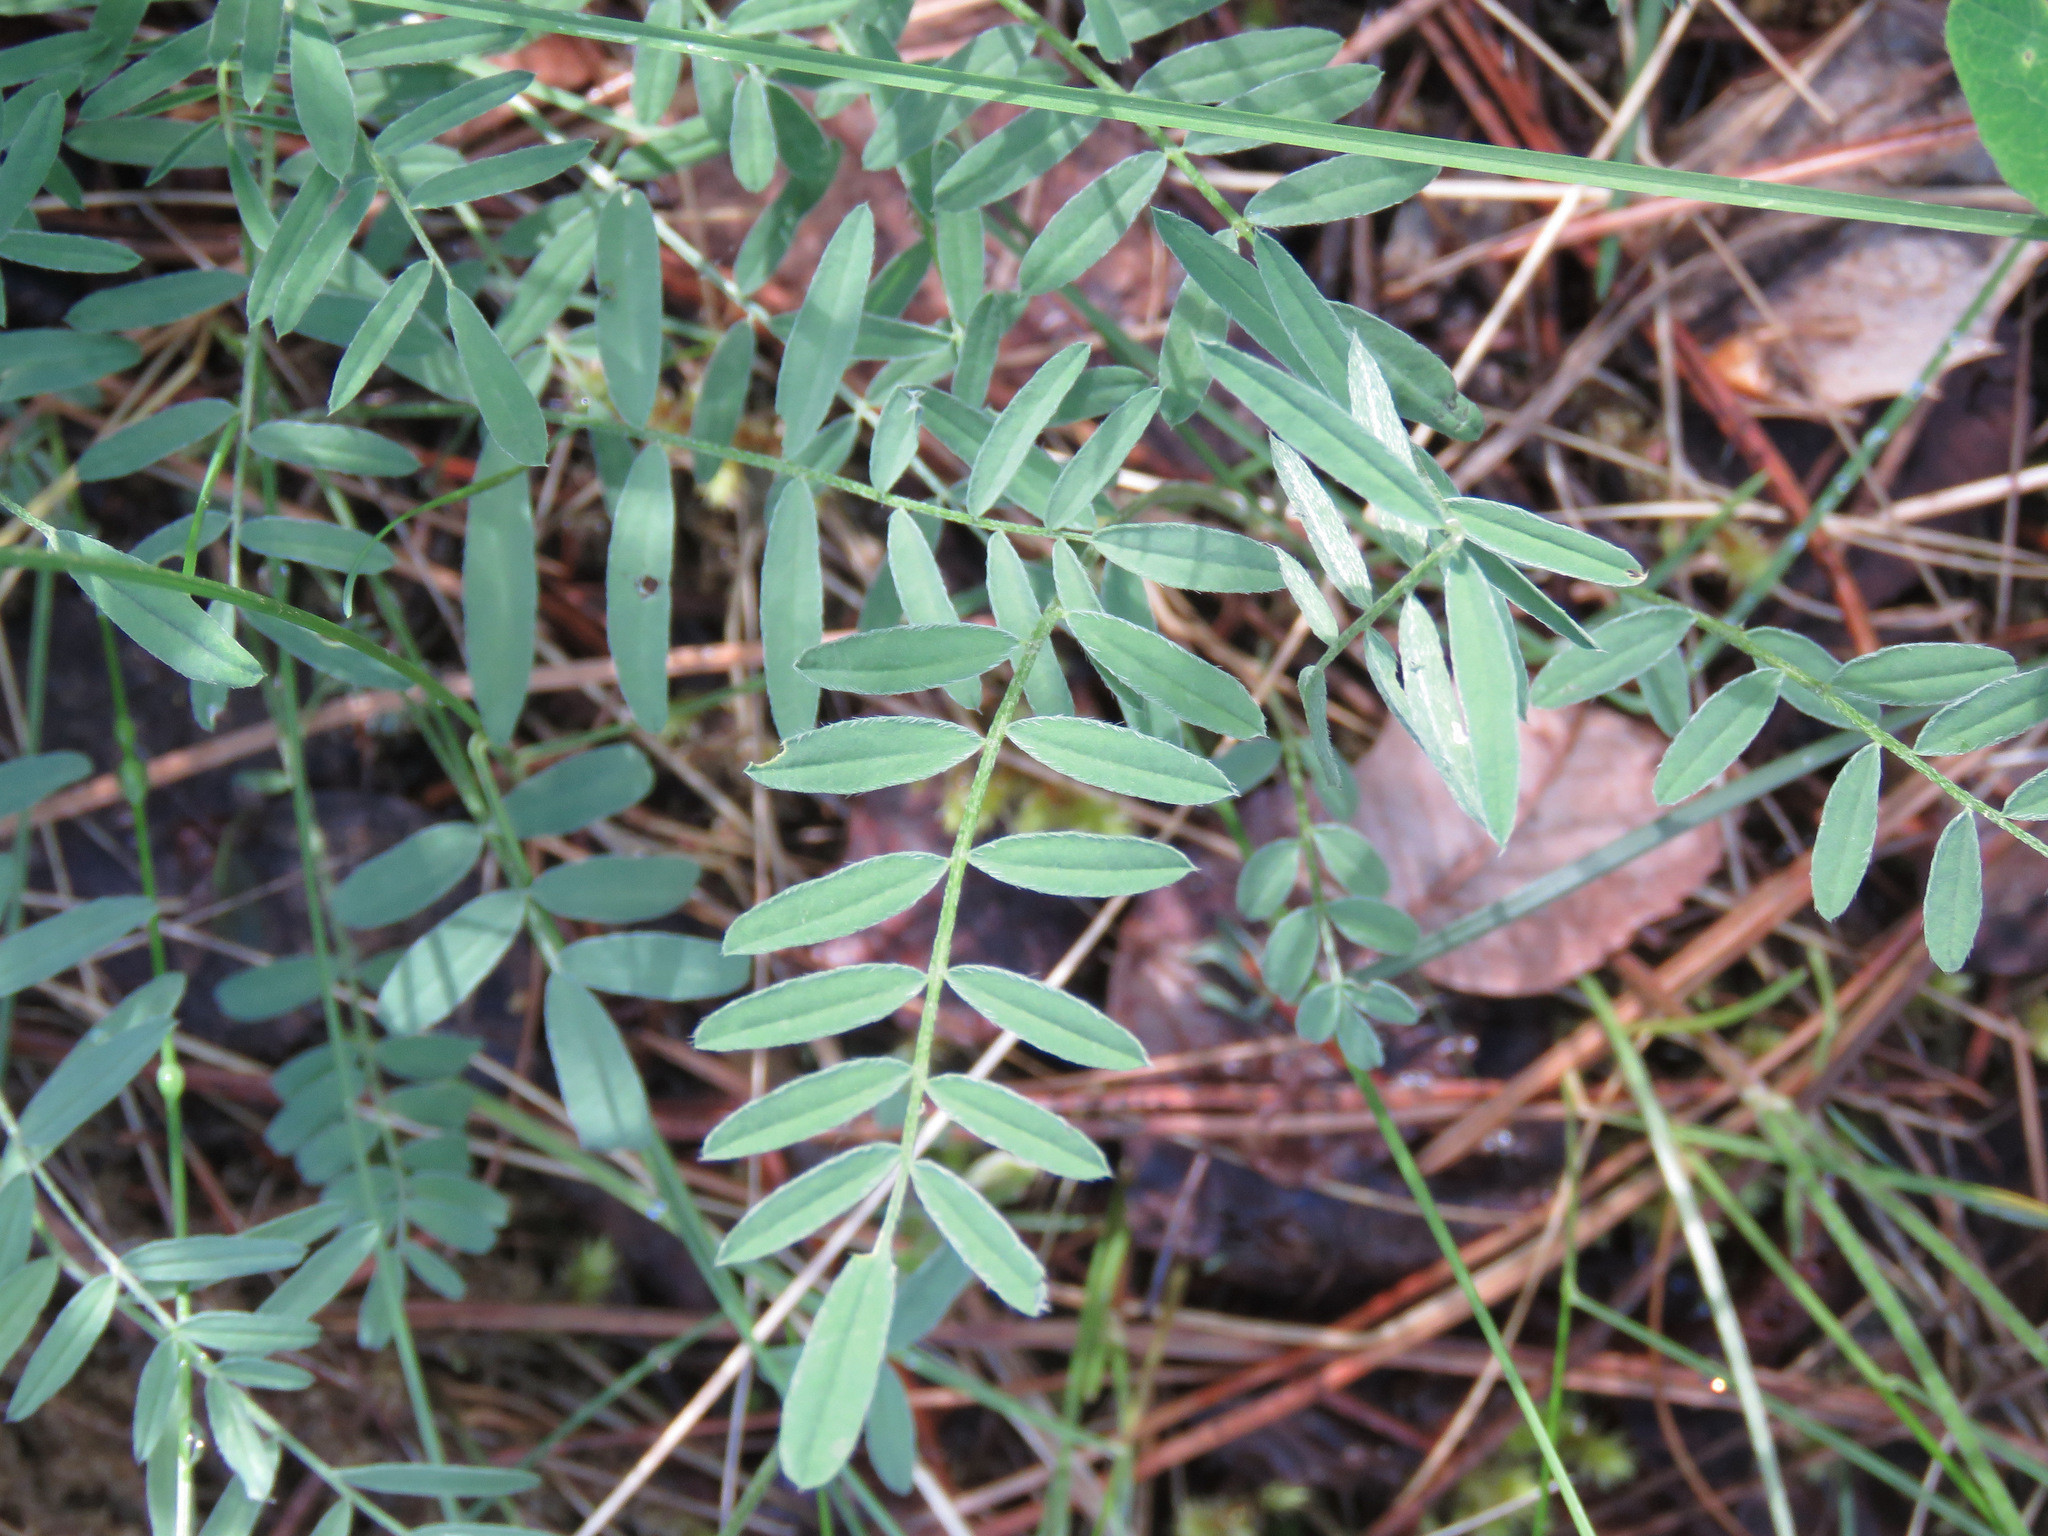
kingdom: Plantae
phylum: Tracheophyta
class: Magnoliopsida
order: Fabales
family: Fabaceae
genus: Astragalus
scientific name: Astragalus miser
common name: Timber milkvetch
